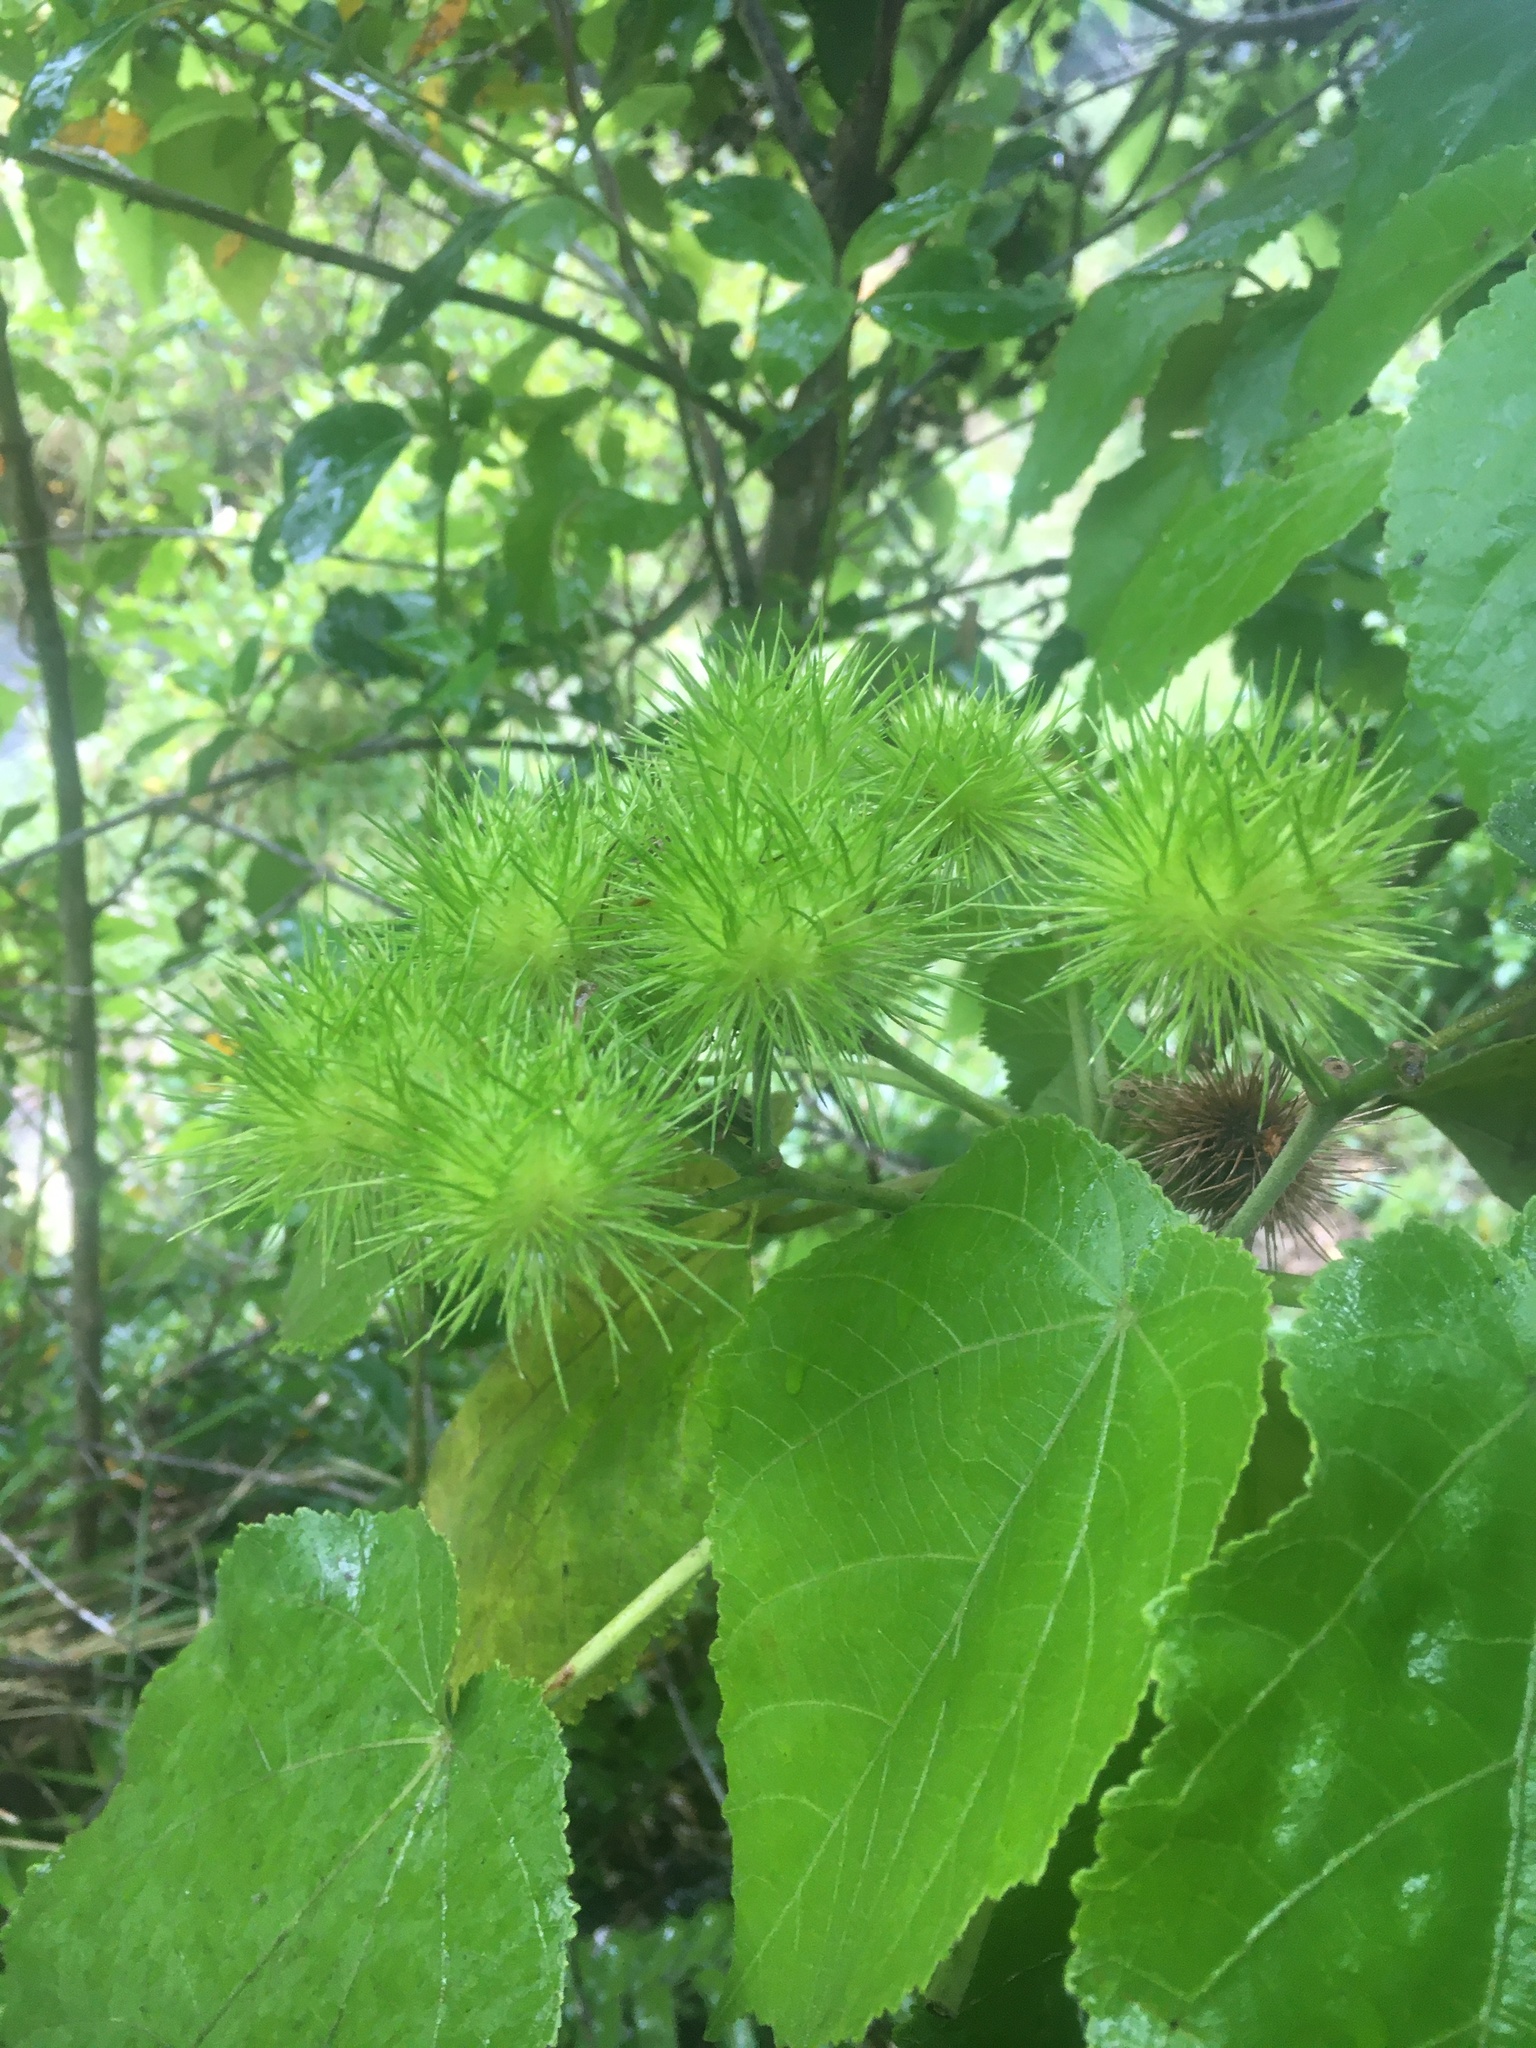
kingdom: Plantae
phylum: Tracheophyta
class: Magnoliopsida
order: Malvales
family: Malvaceae
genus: Entelea
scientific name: Entelea arborescens
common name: New zealand-mulberry
